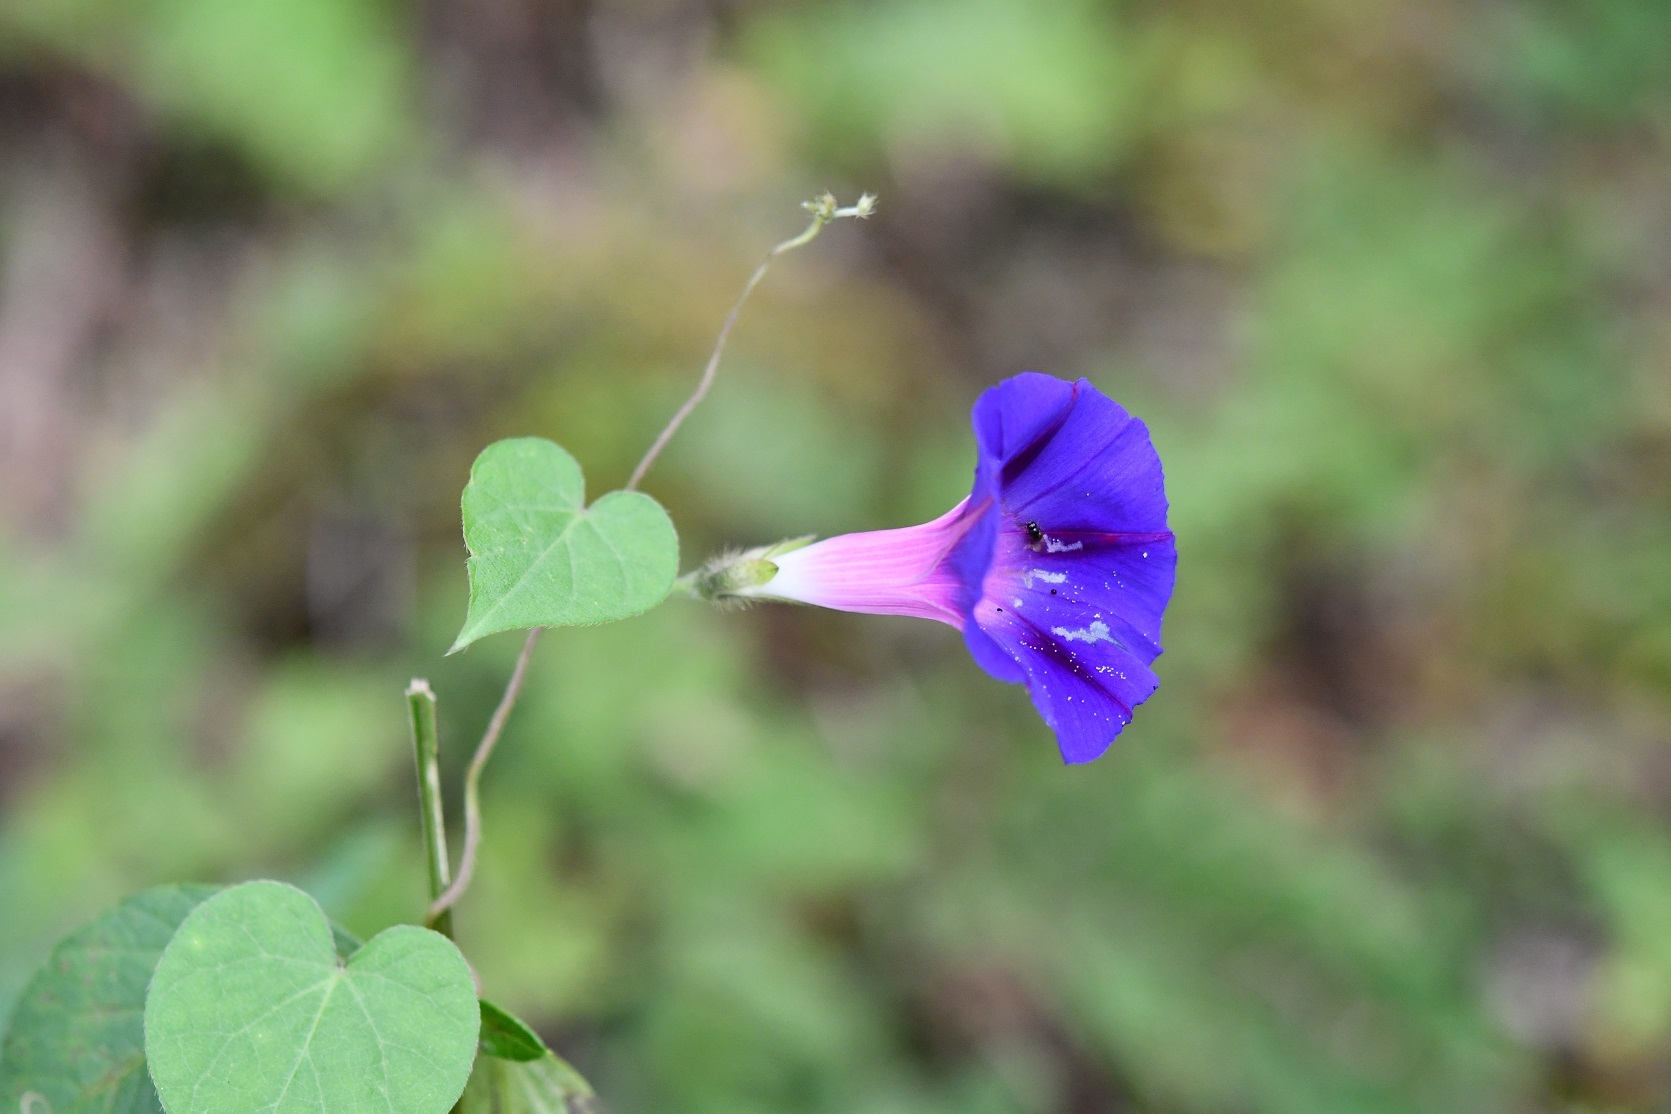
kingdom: Plantae
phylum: Tracheophyta
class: Magnoliopsida
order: Solanales
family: Convolvulaceae
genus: Ipomoea
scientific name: Ipomoea purpurea
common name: Common morning-glory
